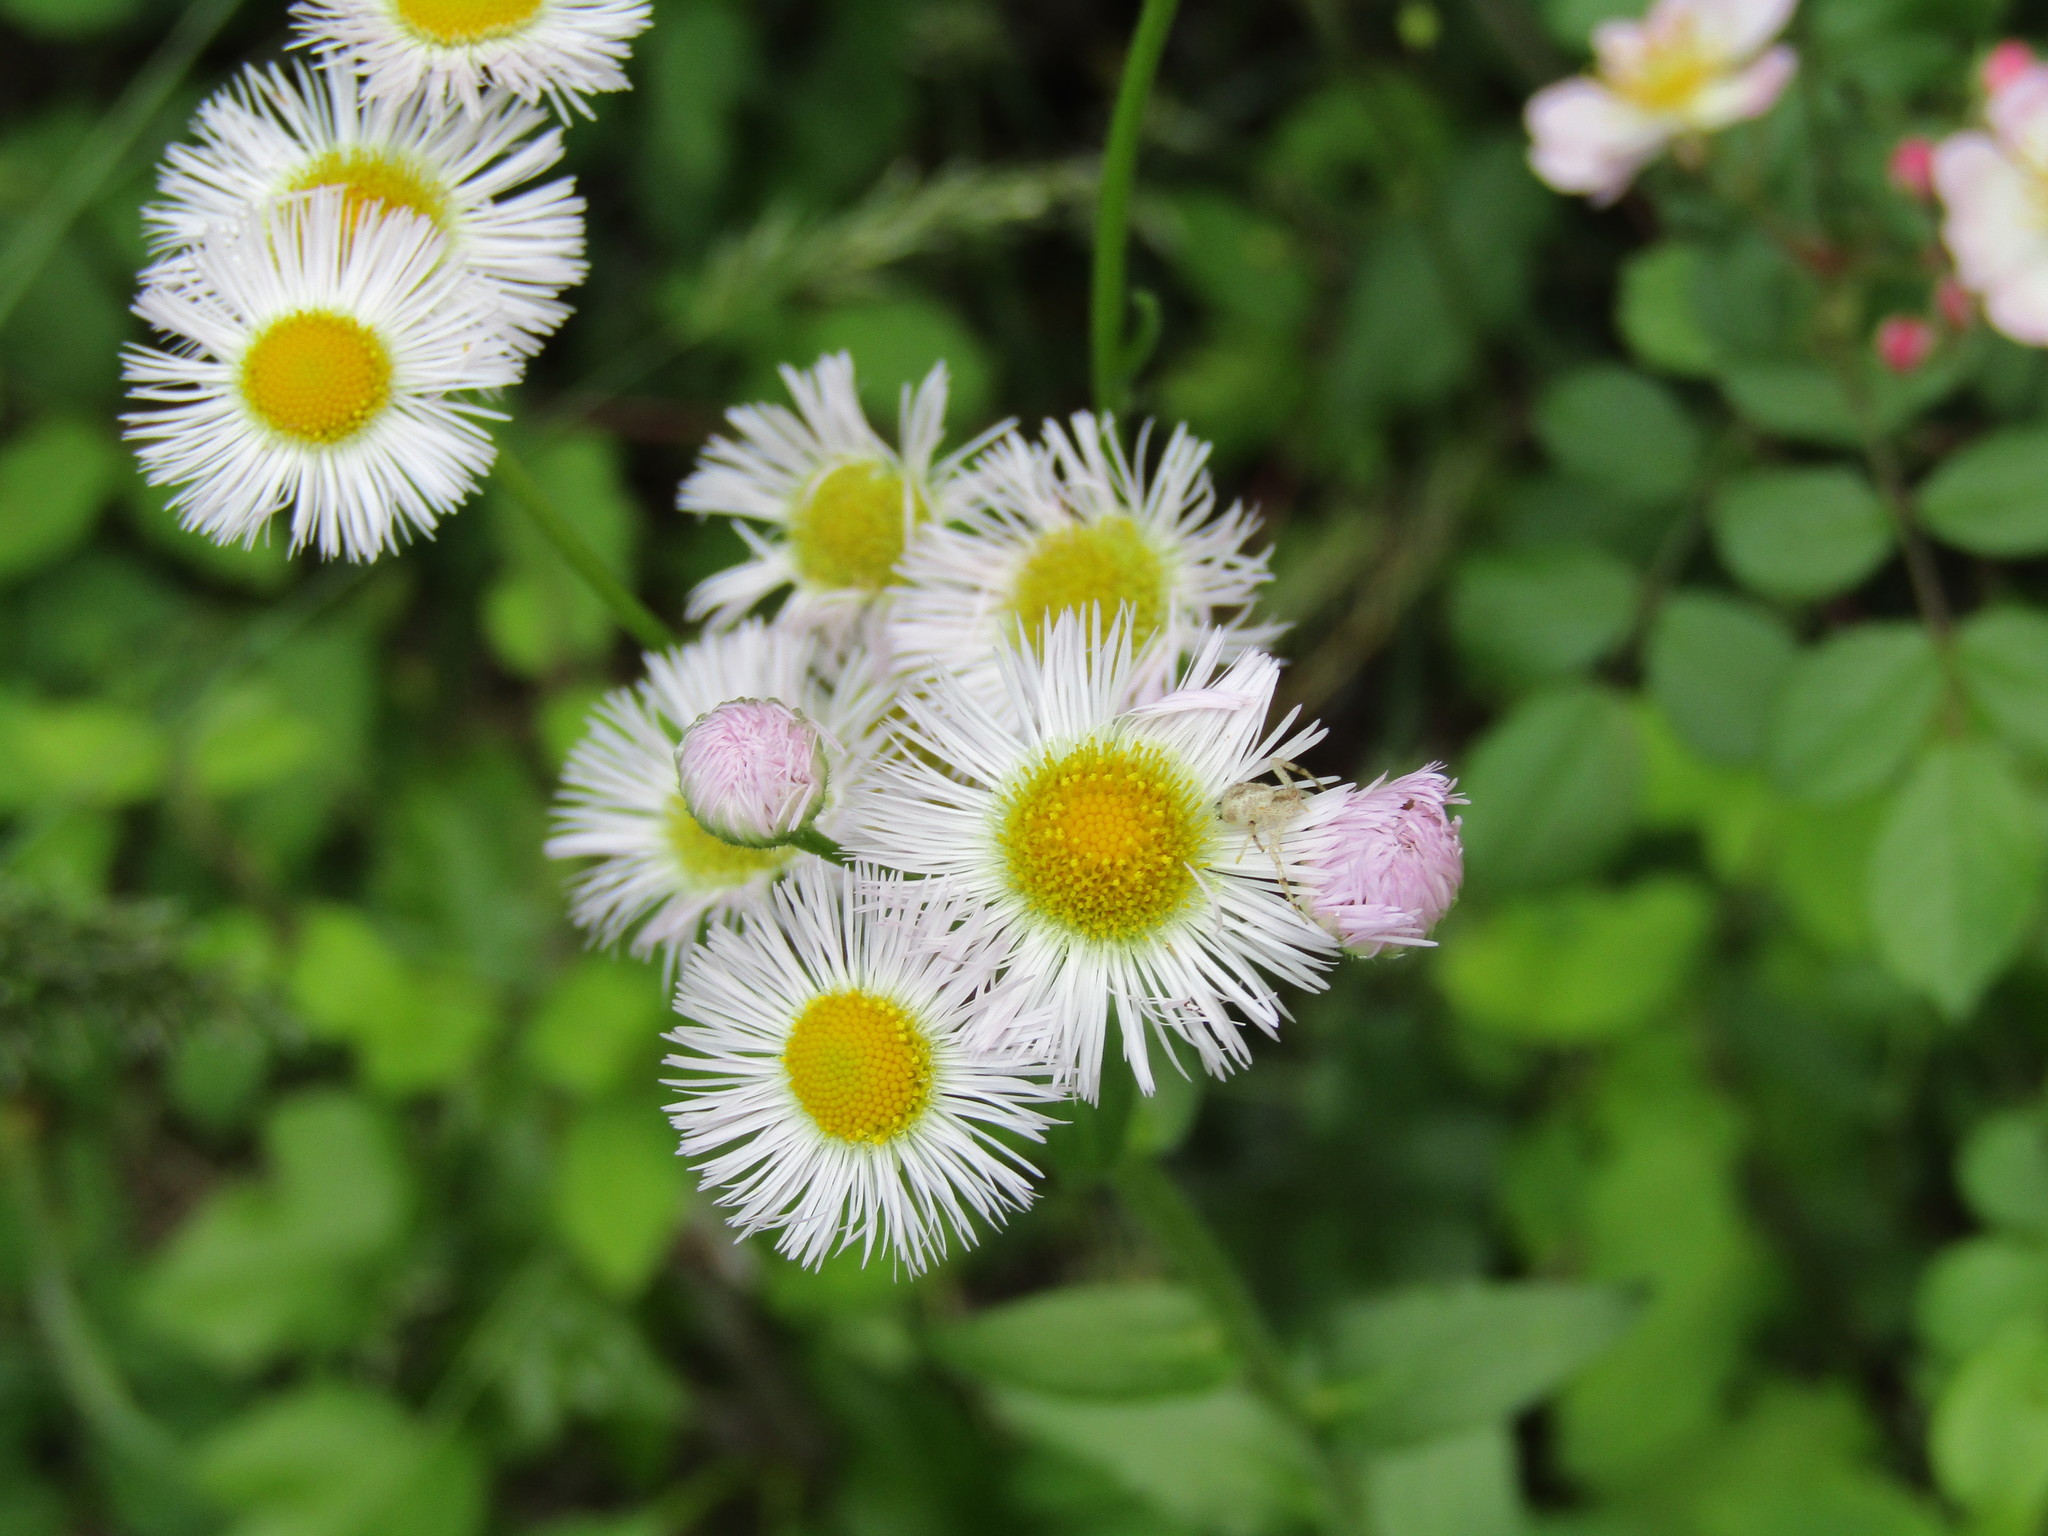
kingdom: Plantae
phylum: Tracheophyta
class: Magnoliopsida
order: Asterales
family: Asteraceae
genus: Erigeron
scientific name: Erigeron philadelphicus
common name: Robin's-plantain
